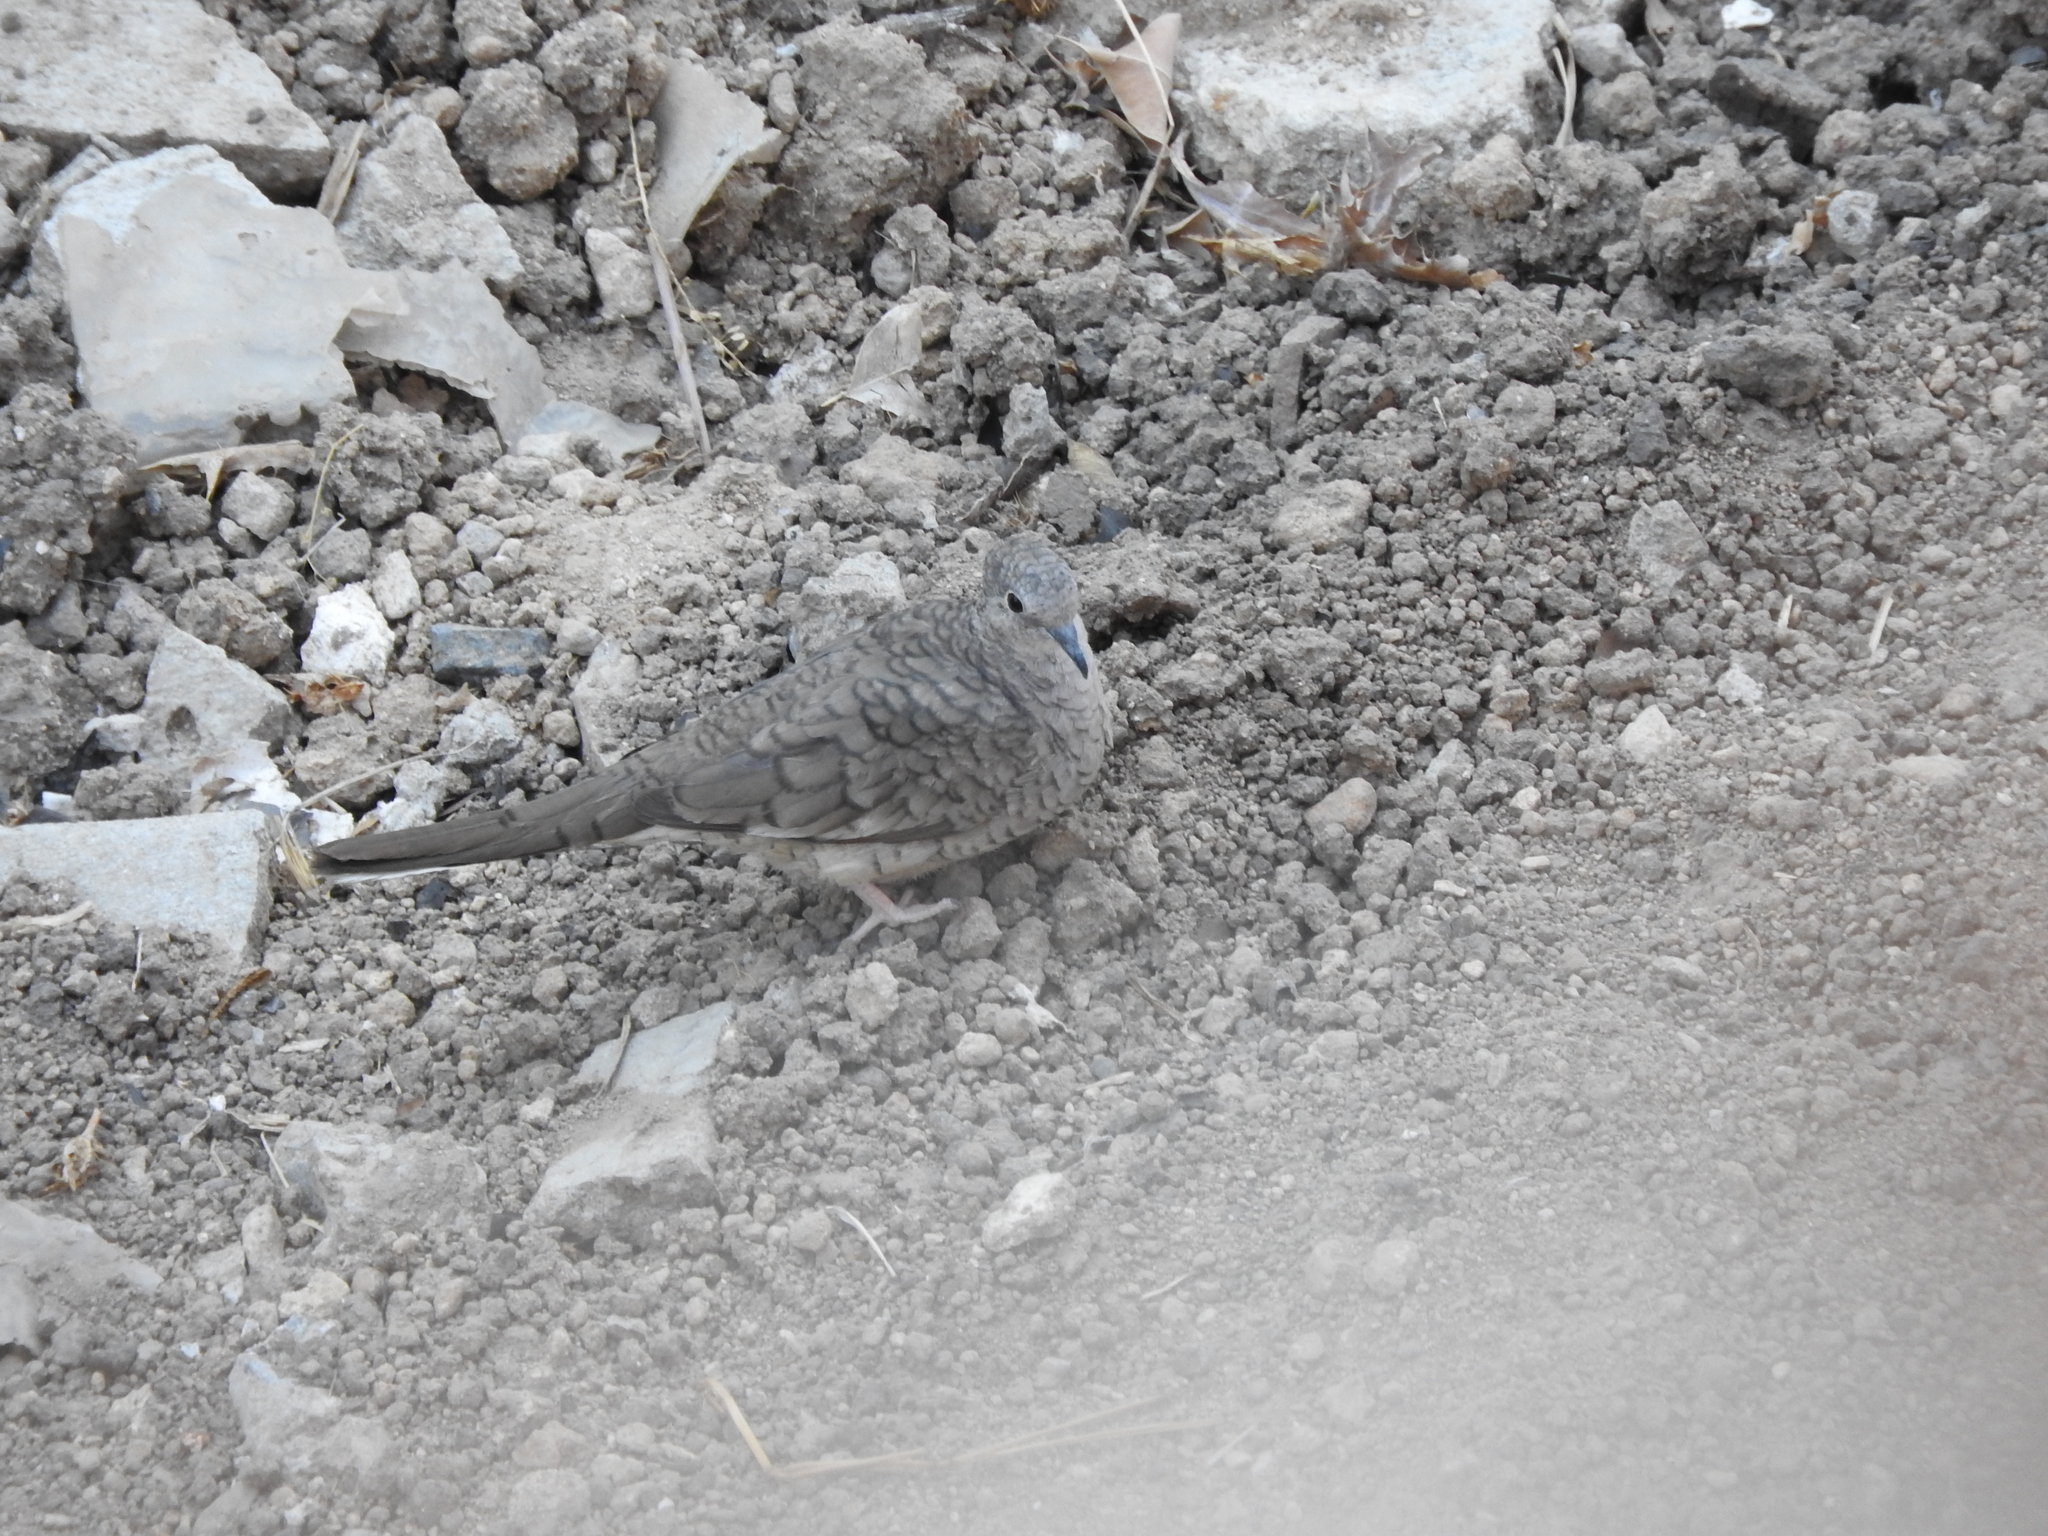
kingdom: Animalia
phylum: Chordata
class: Aves
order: Columbiformes
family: Columbidae
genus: Columbina
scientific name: Columbina inca
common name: Inca dove
